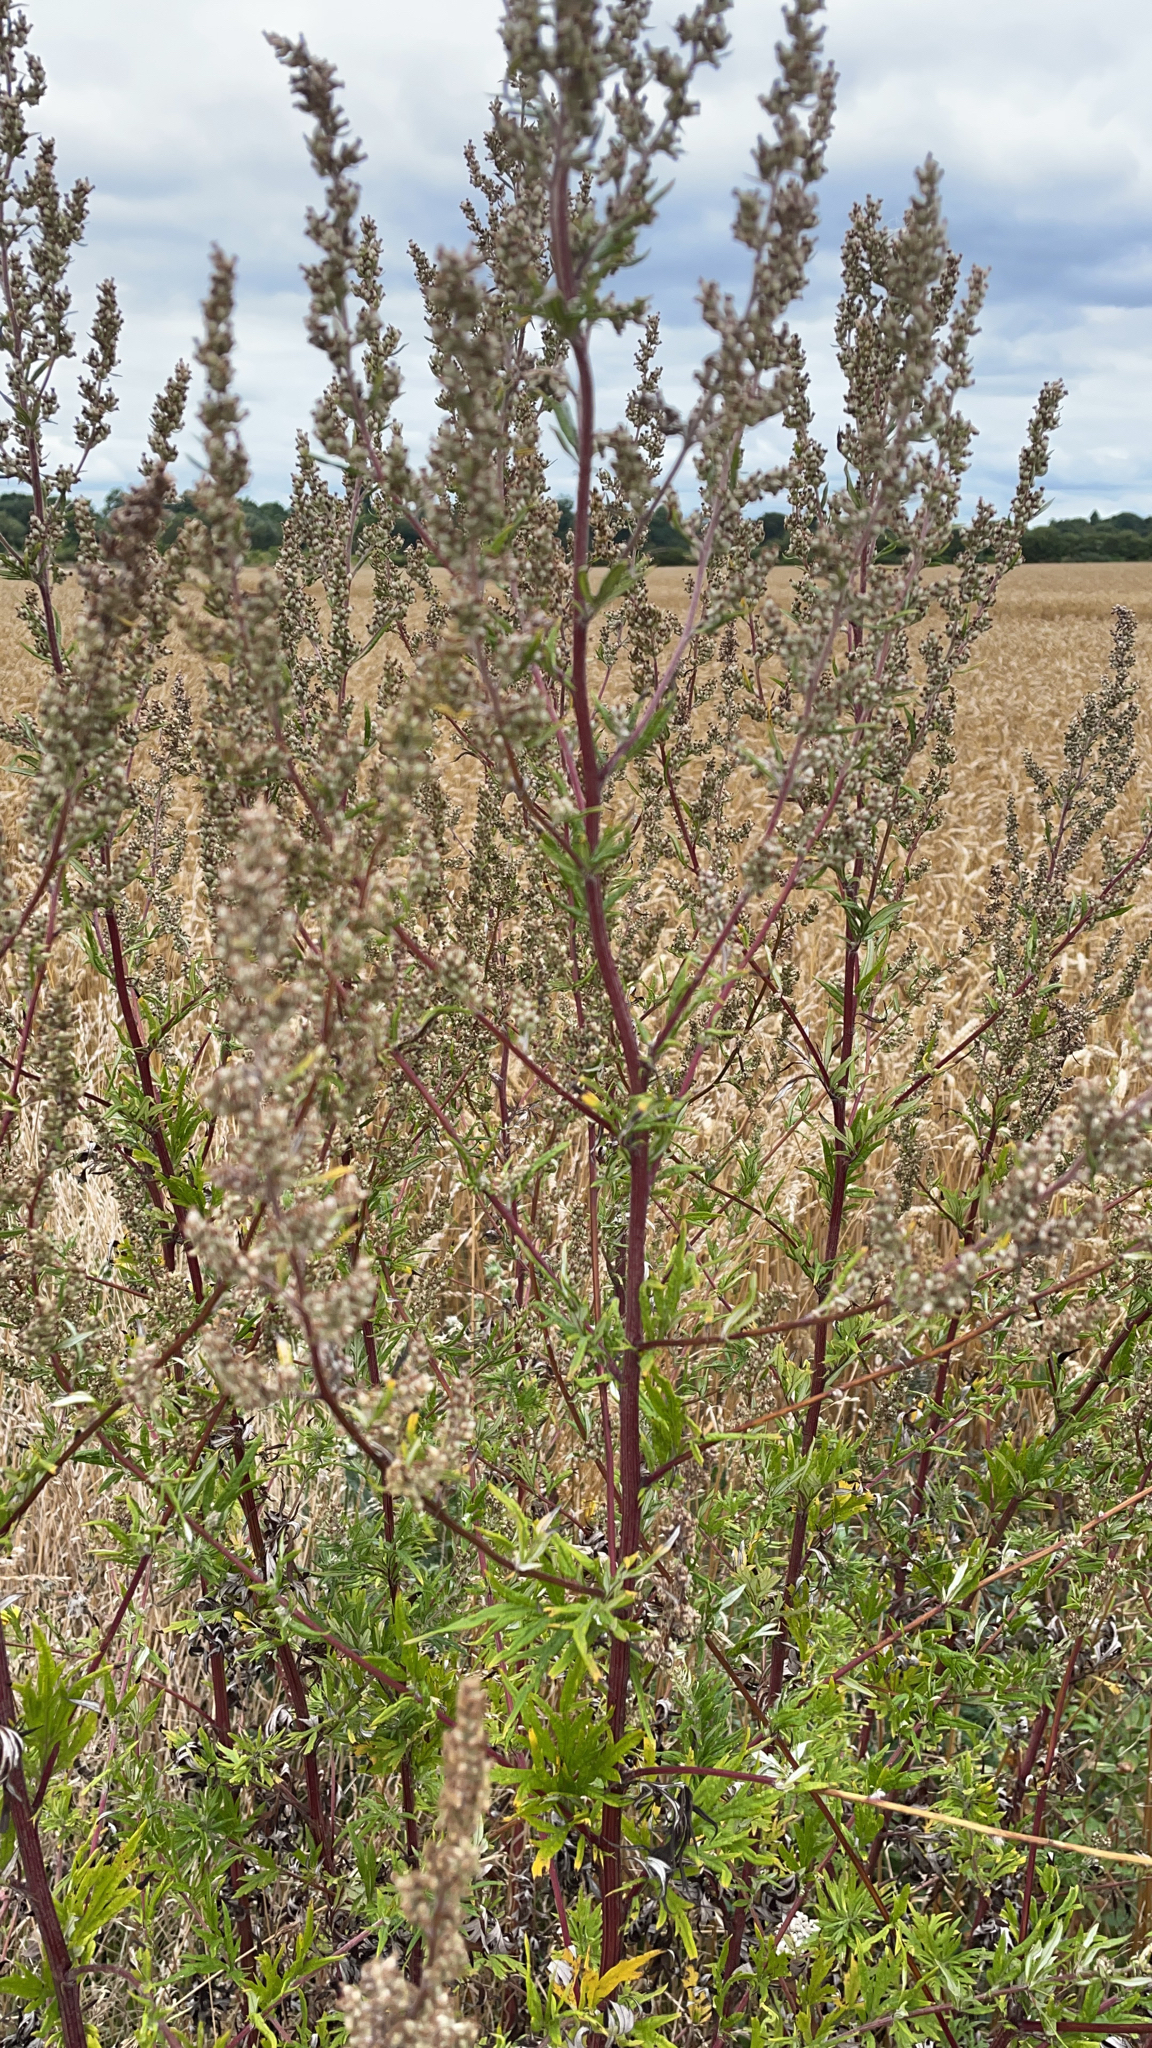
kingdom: Plantae
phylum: Tracheophyta
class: Magnoliopsida
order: Asterales
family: Asteraceae
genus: Artemisia
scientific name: Artemisia vulgaris
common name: Mugwort
